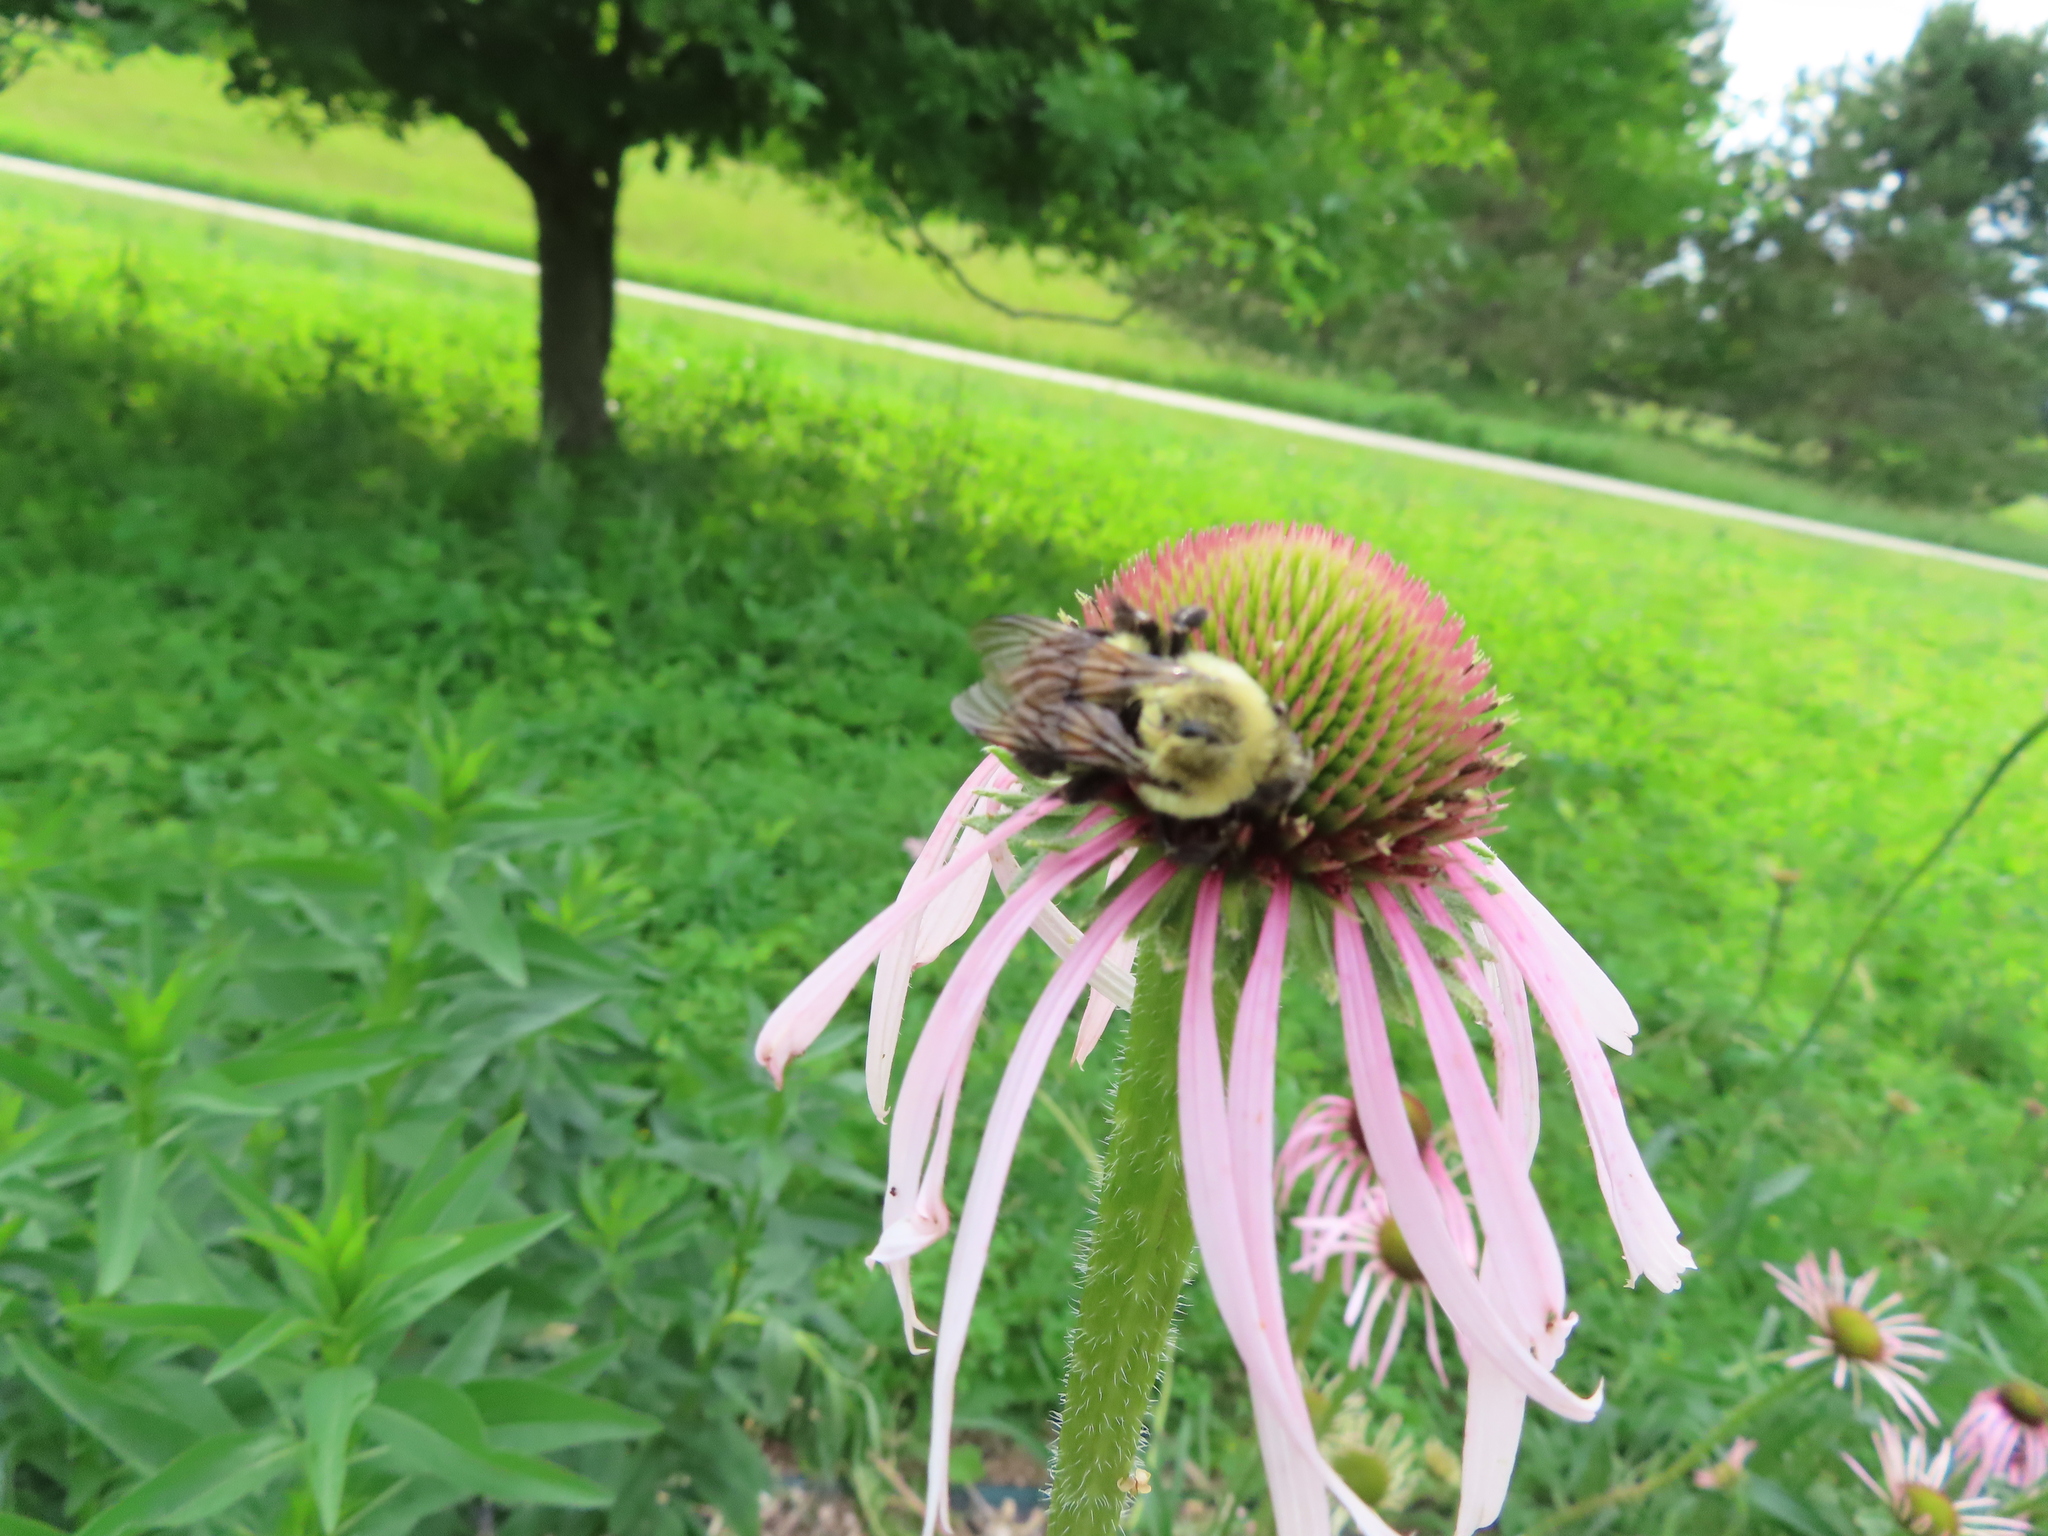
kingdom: Animalia
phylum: Arthropoda
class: Insecta
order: Hymenoptera
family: Apidae
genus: Bombus
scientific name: Bombus impatiens
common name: Common eastern bumble bee
